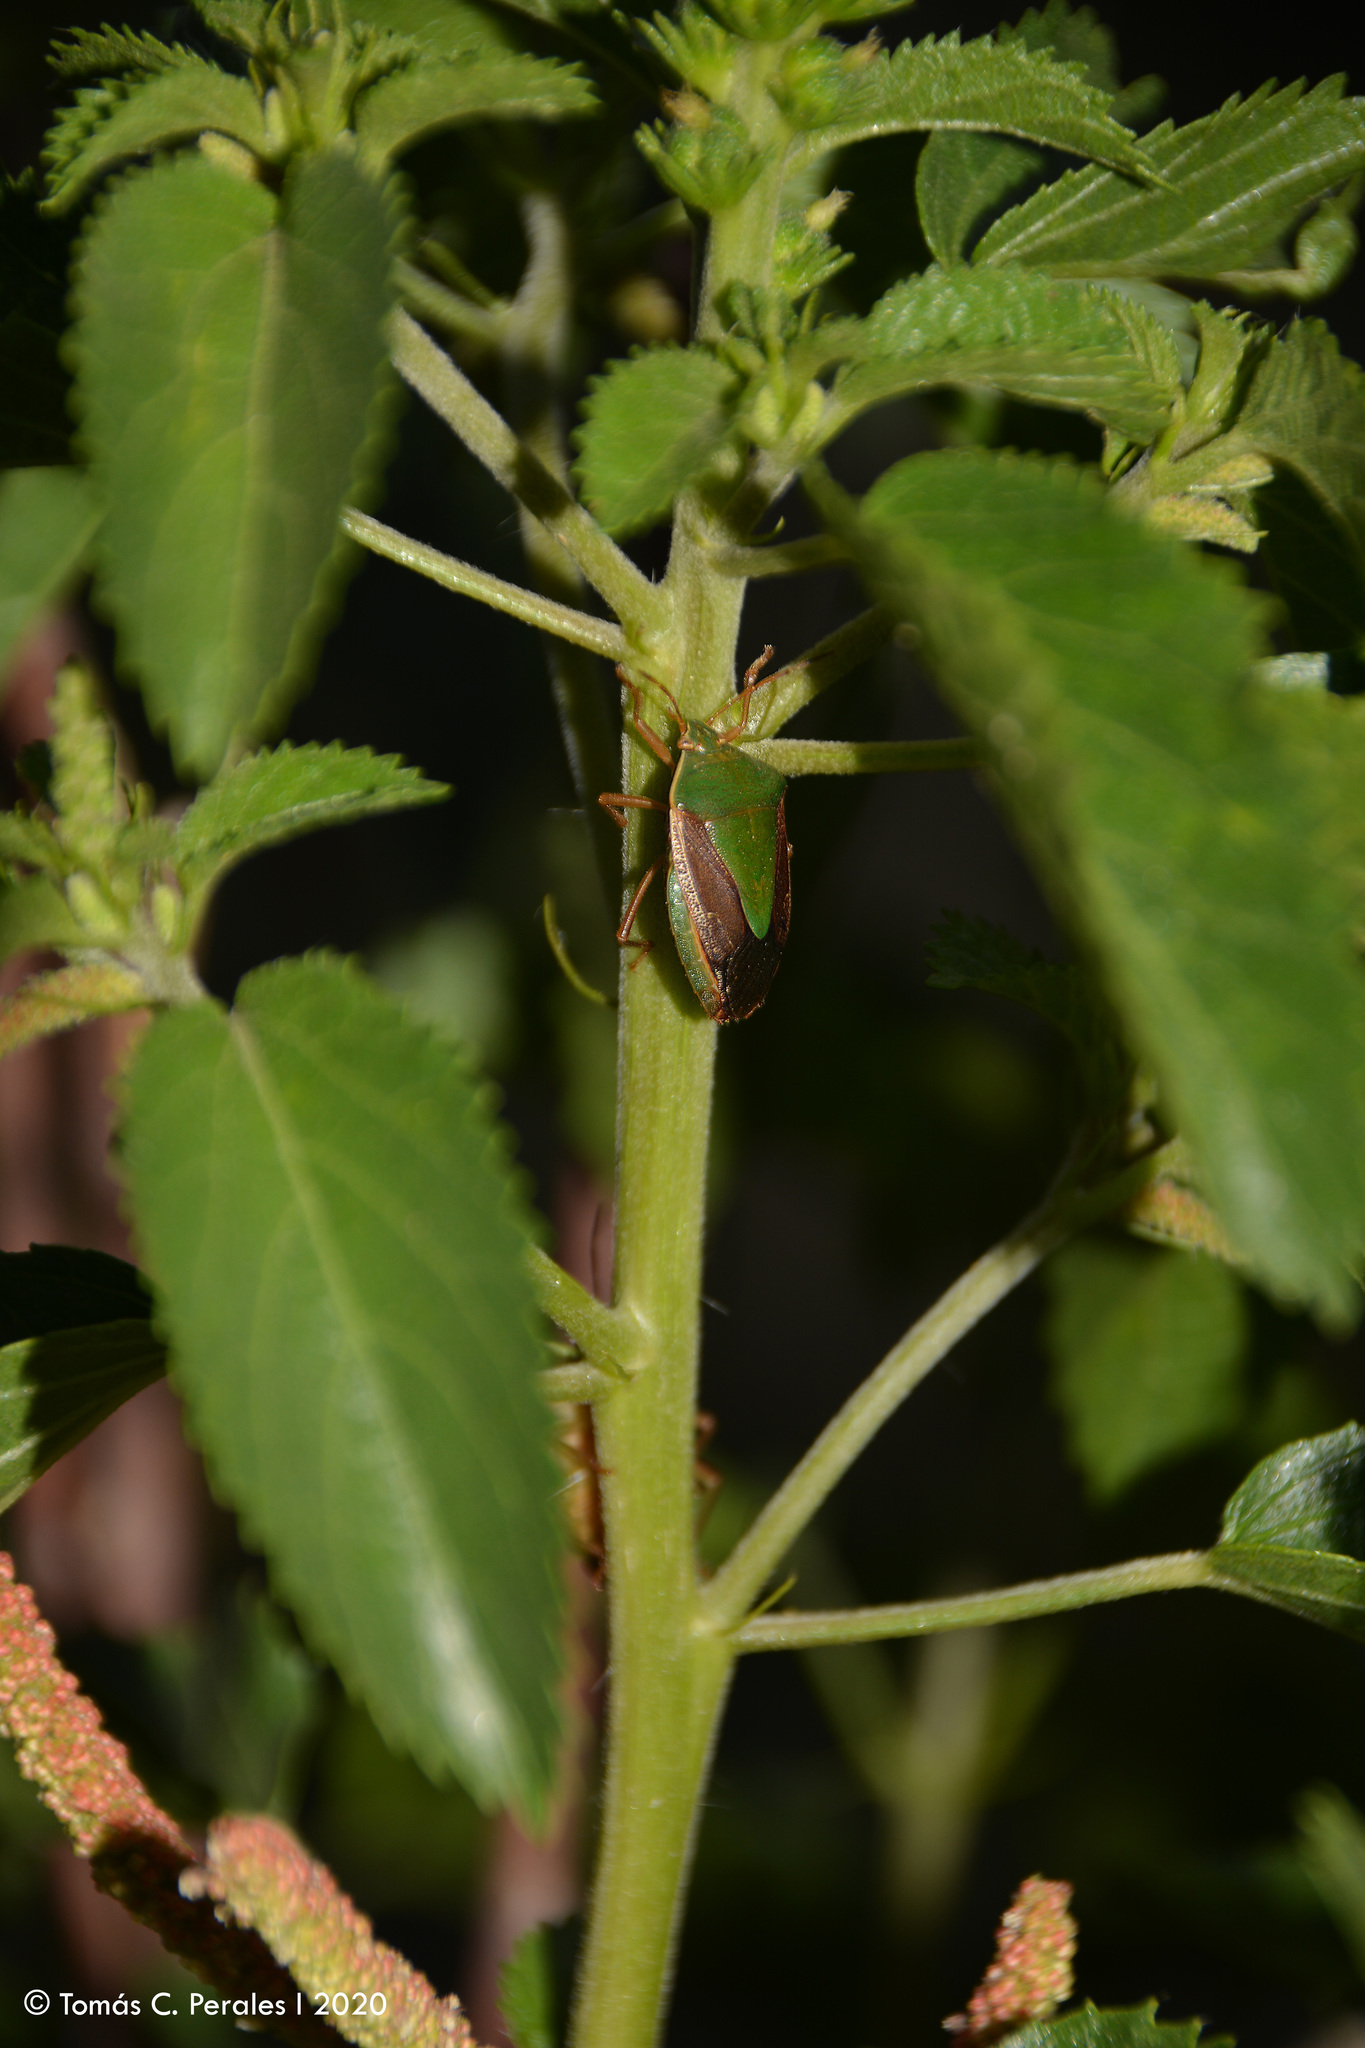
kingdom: Animalia
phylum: Arthropoda
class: Insecta
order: Hemiptera
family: Pentatomidae
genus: Edessa
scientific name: Edessa meditabunda
